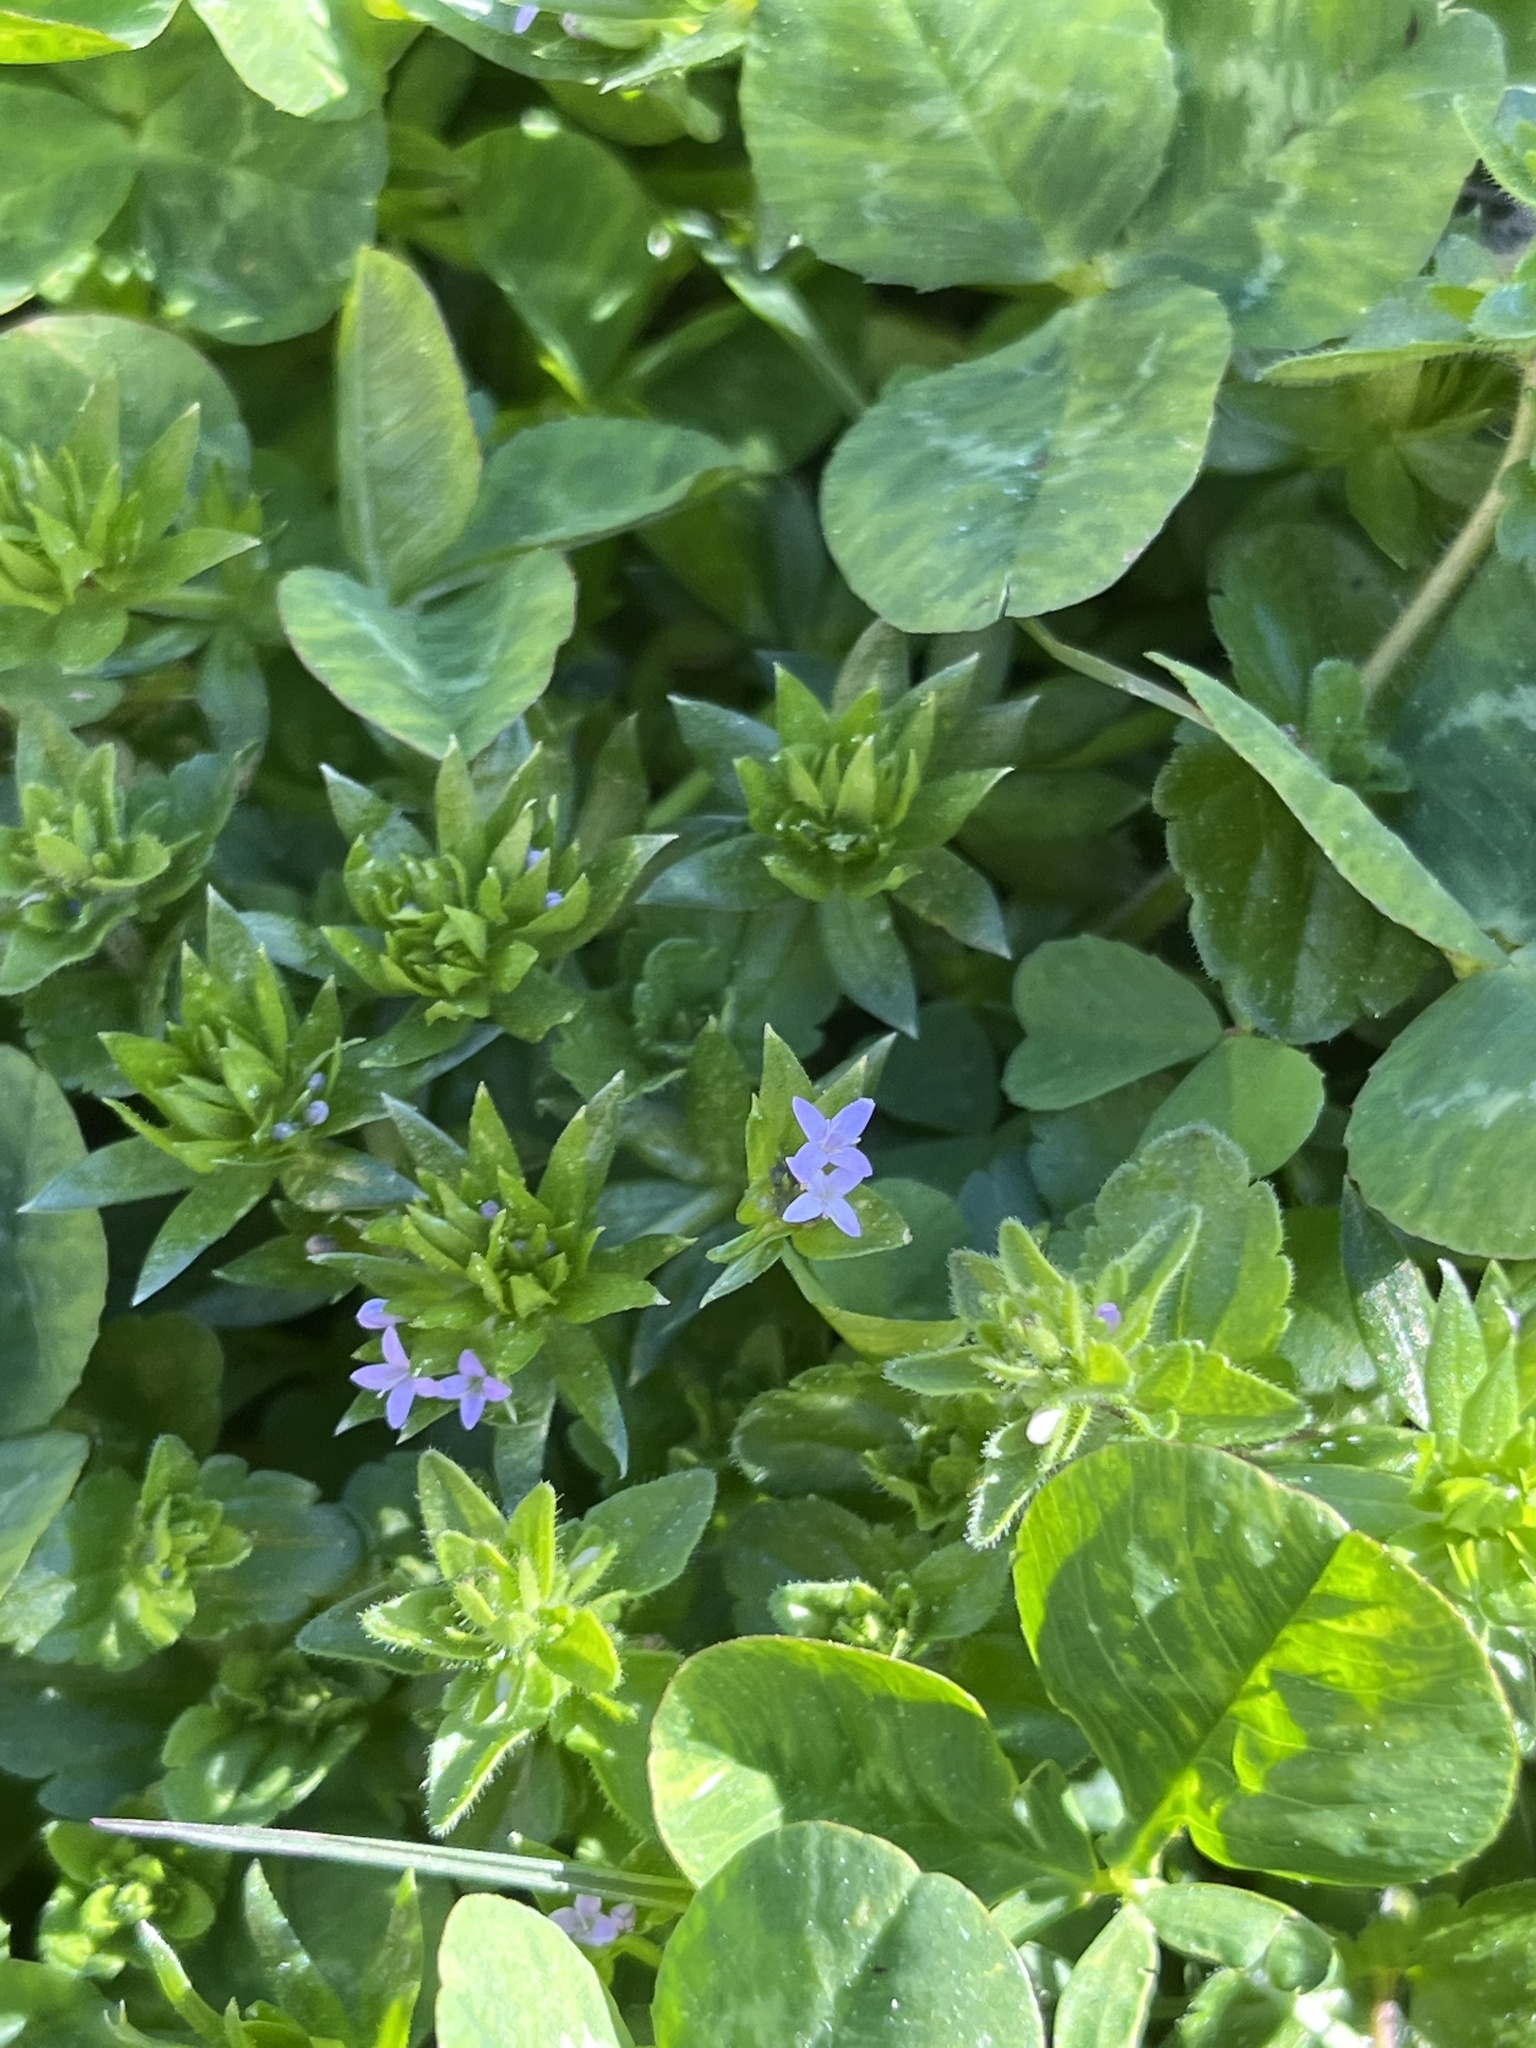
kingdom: Plantae
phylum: Tracheophyta
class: Magnoliopsida
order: Gentianales
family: Rubiaceae
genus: Sherardia
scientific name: Sherardia arvensis
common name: Field madder
